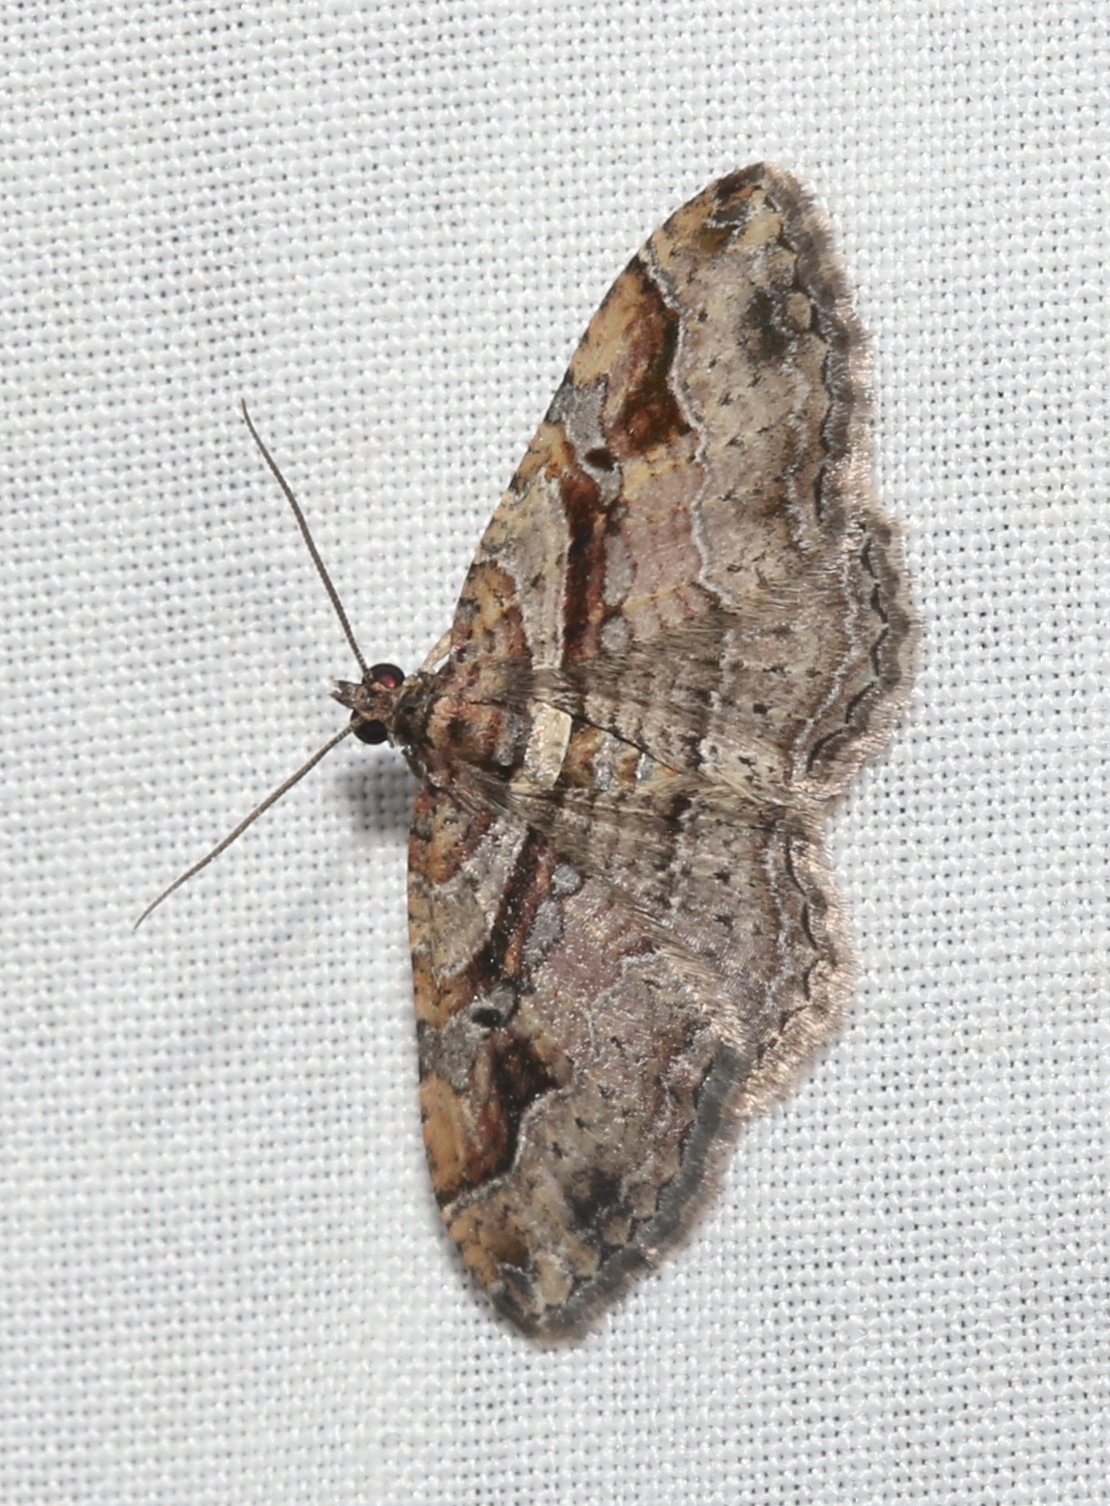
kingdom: Animalia
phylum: Arthropoda
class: Insecta
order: Lepidoptera
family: Geometridae
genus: Costaconvexa
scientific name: Costaconvexa centrostrigaria
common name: Bent-line carpet
